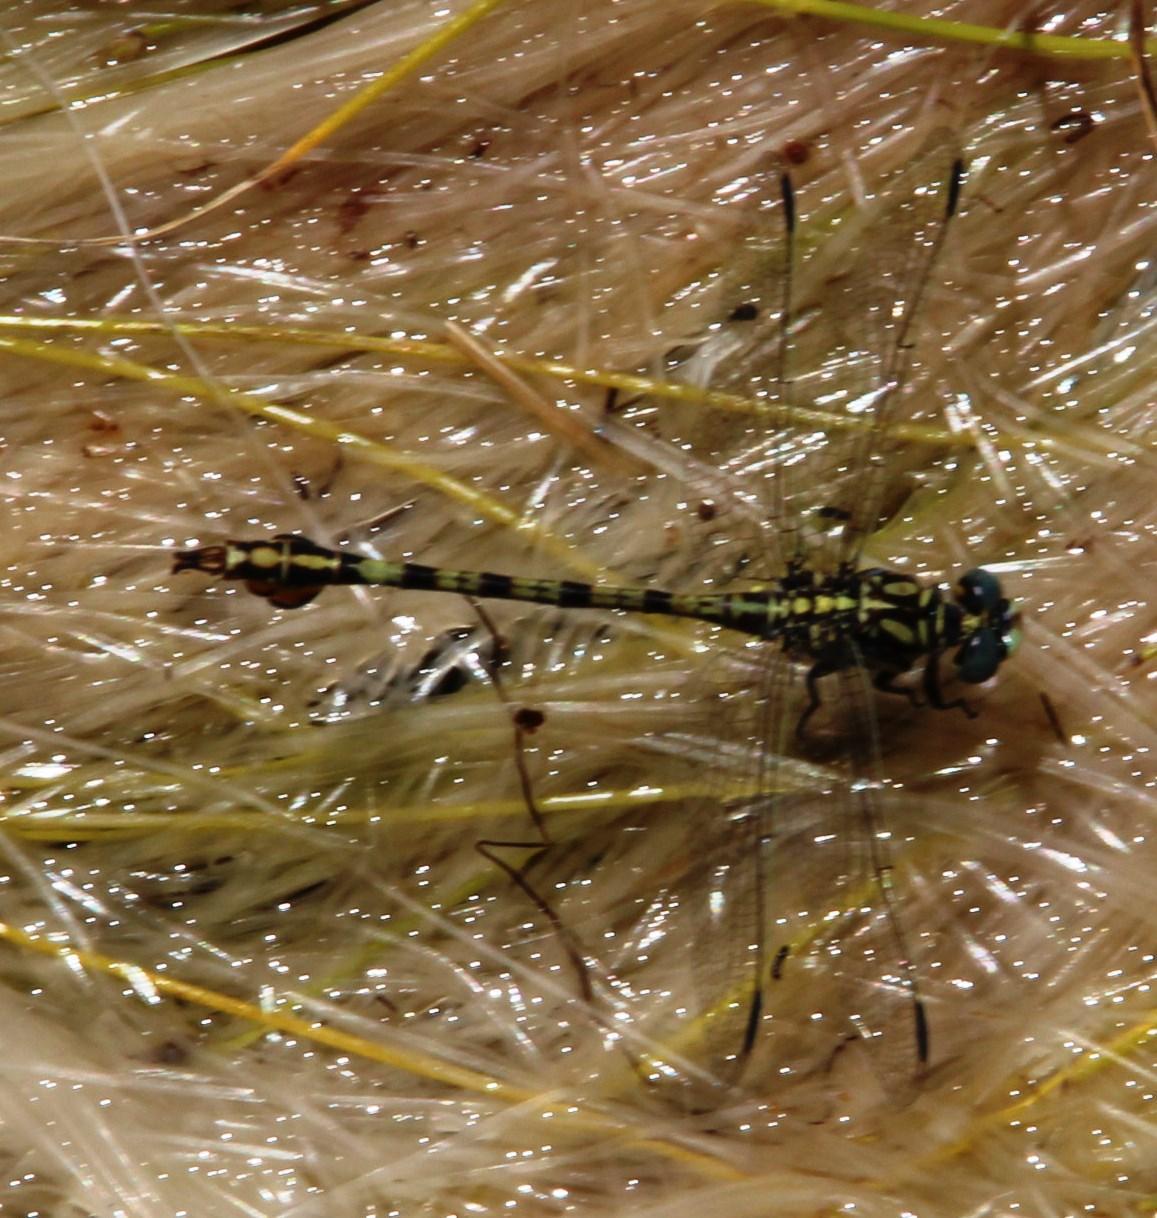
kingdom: Animalia
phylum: Arthropoda
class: Insecta
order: Odonata
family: Gomphidae
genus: Paragomphus
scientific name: Paragomphus cognatus
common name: Boulder hooktail
